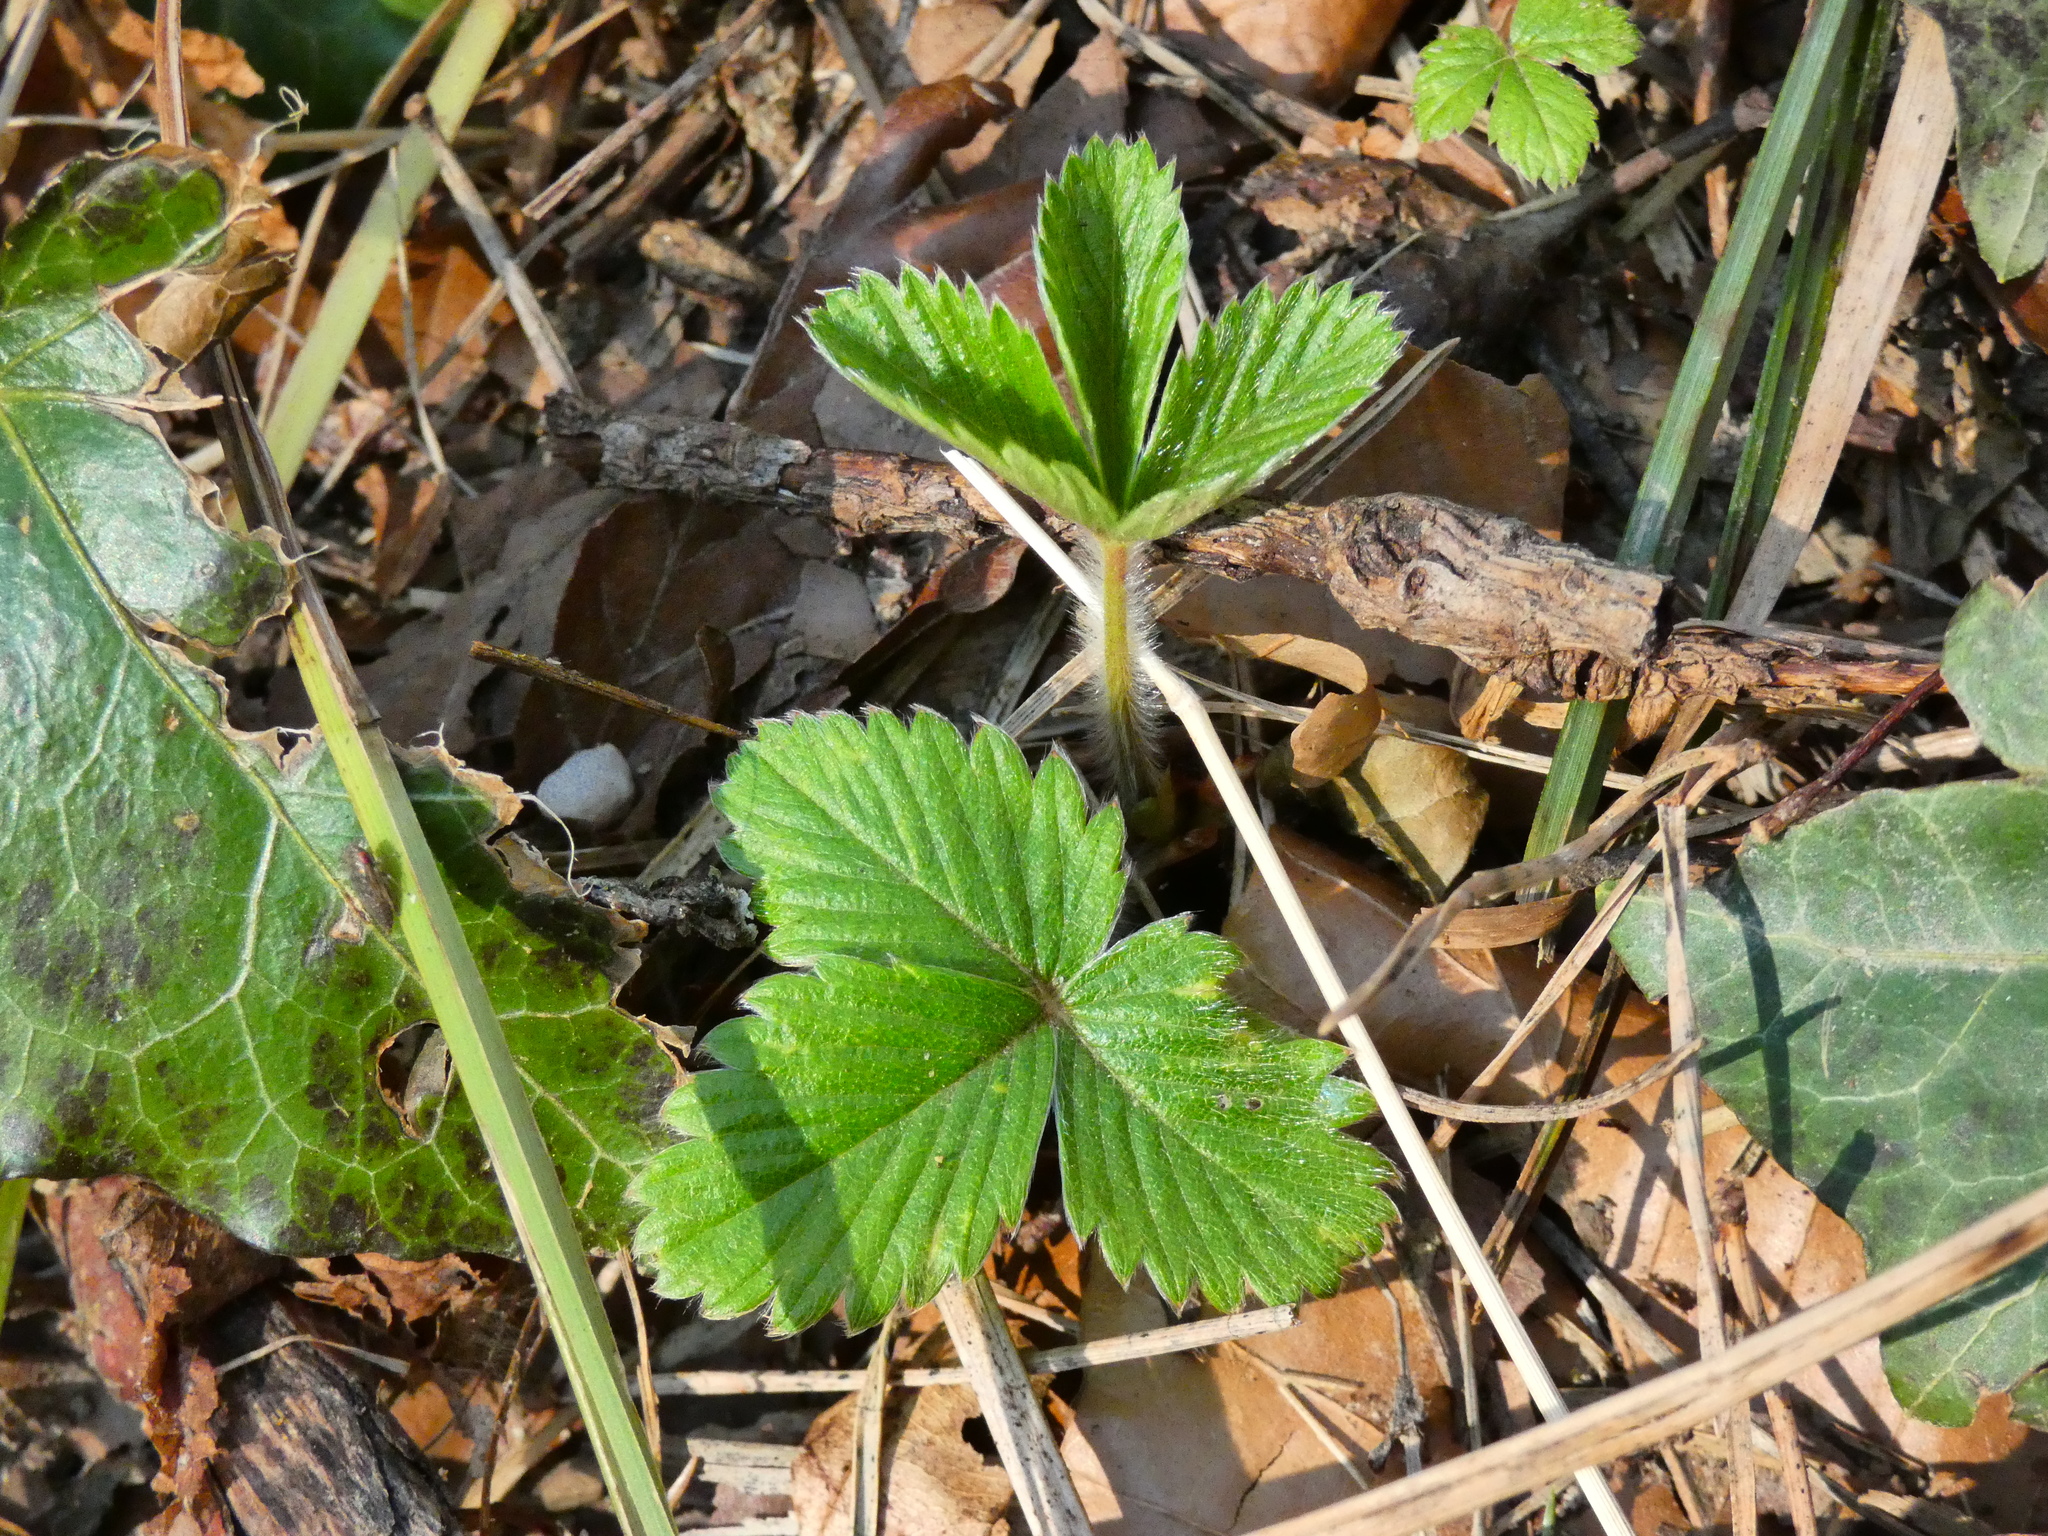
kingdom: Plantae
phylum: Tracheophyta
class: Magnoliopsida
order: Rosales
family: Rosaceae
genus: Fragaria
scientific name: Fragaria vesca
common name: Wild strawberry
